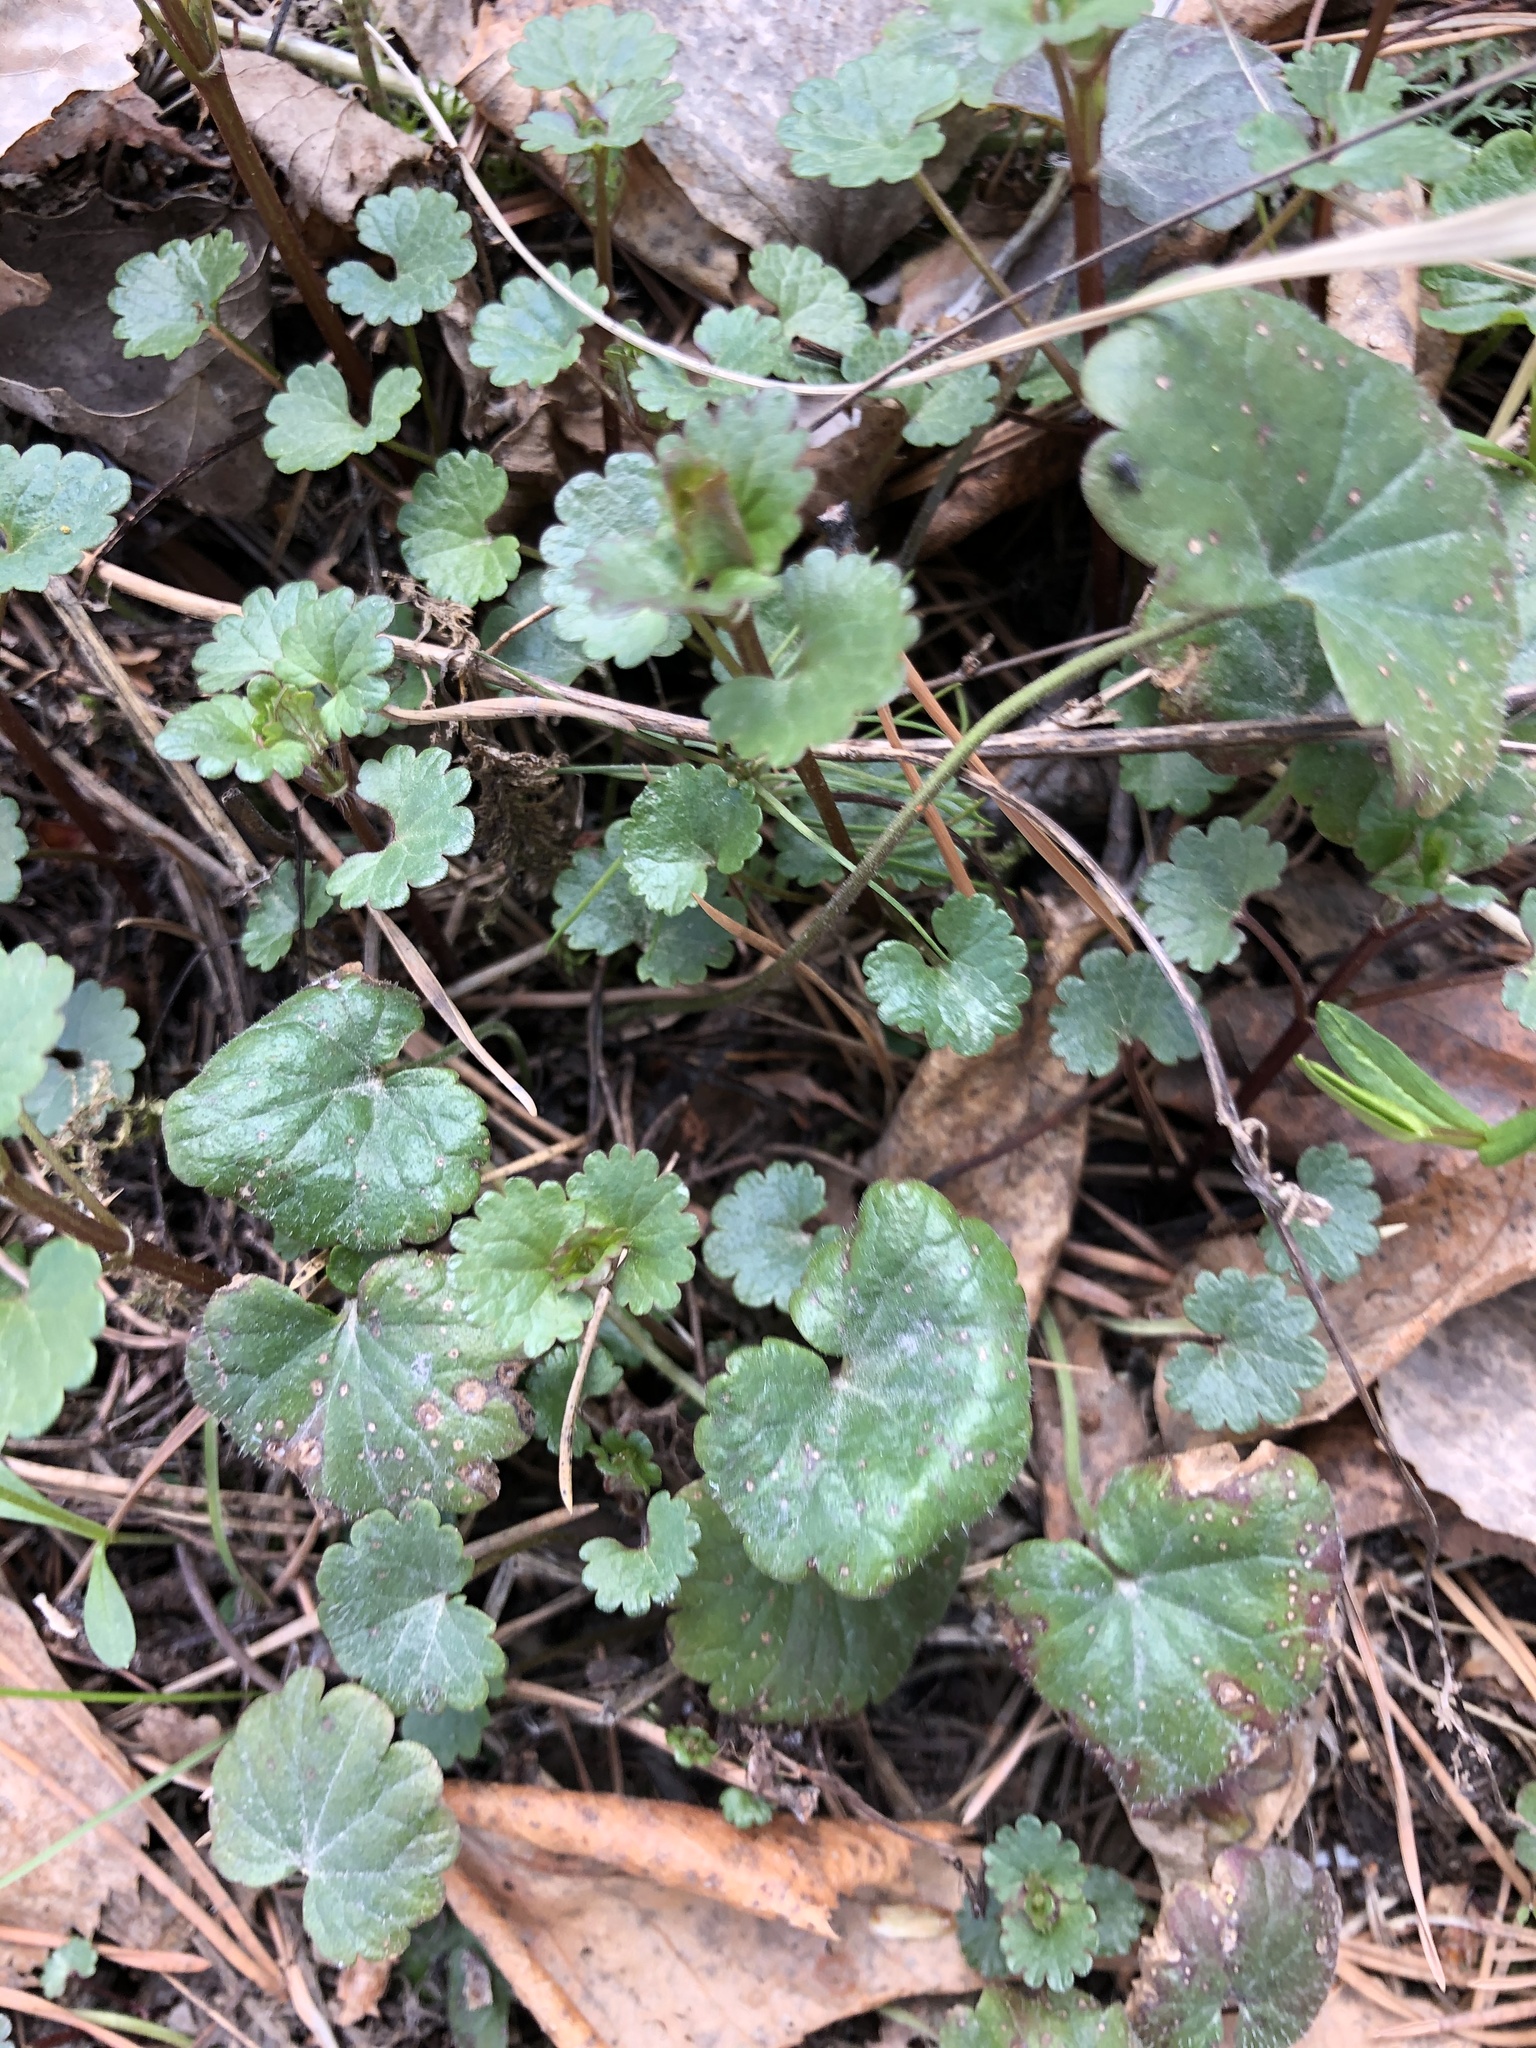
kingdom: Plantae
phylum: Tracheophyta
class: Magnoliopsida
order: Lamiales
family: Lamiaceae
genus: Glechoma
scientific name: Glechoma hederacea
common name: Ground ivy
